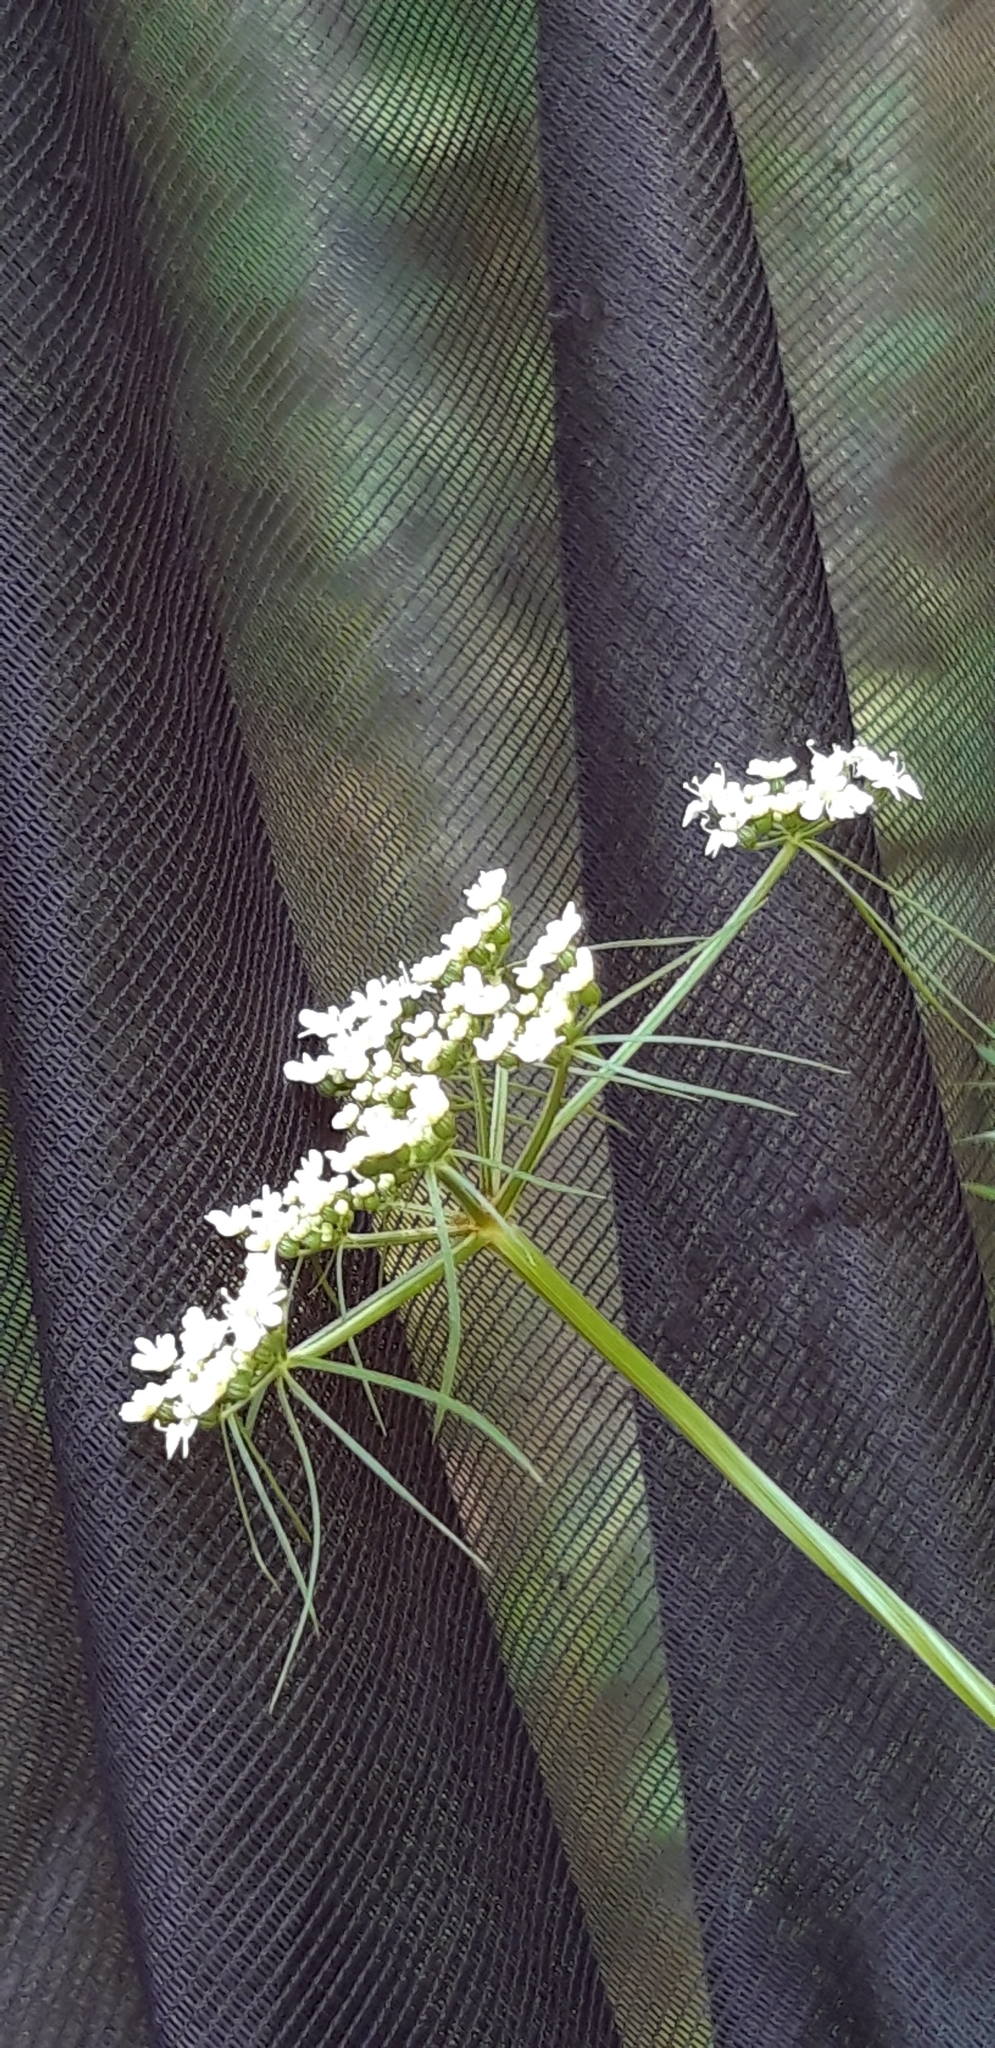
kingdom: Plantae
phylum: Tracheophyta
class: Magnoliopsida
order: Apiales
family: Apiaceae
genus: Aethusa
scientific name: Aethusa cynapium
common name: Fool's parsley
